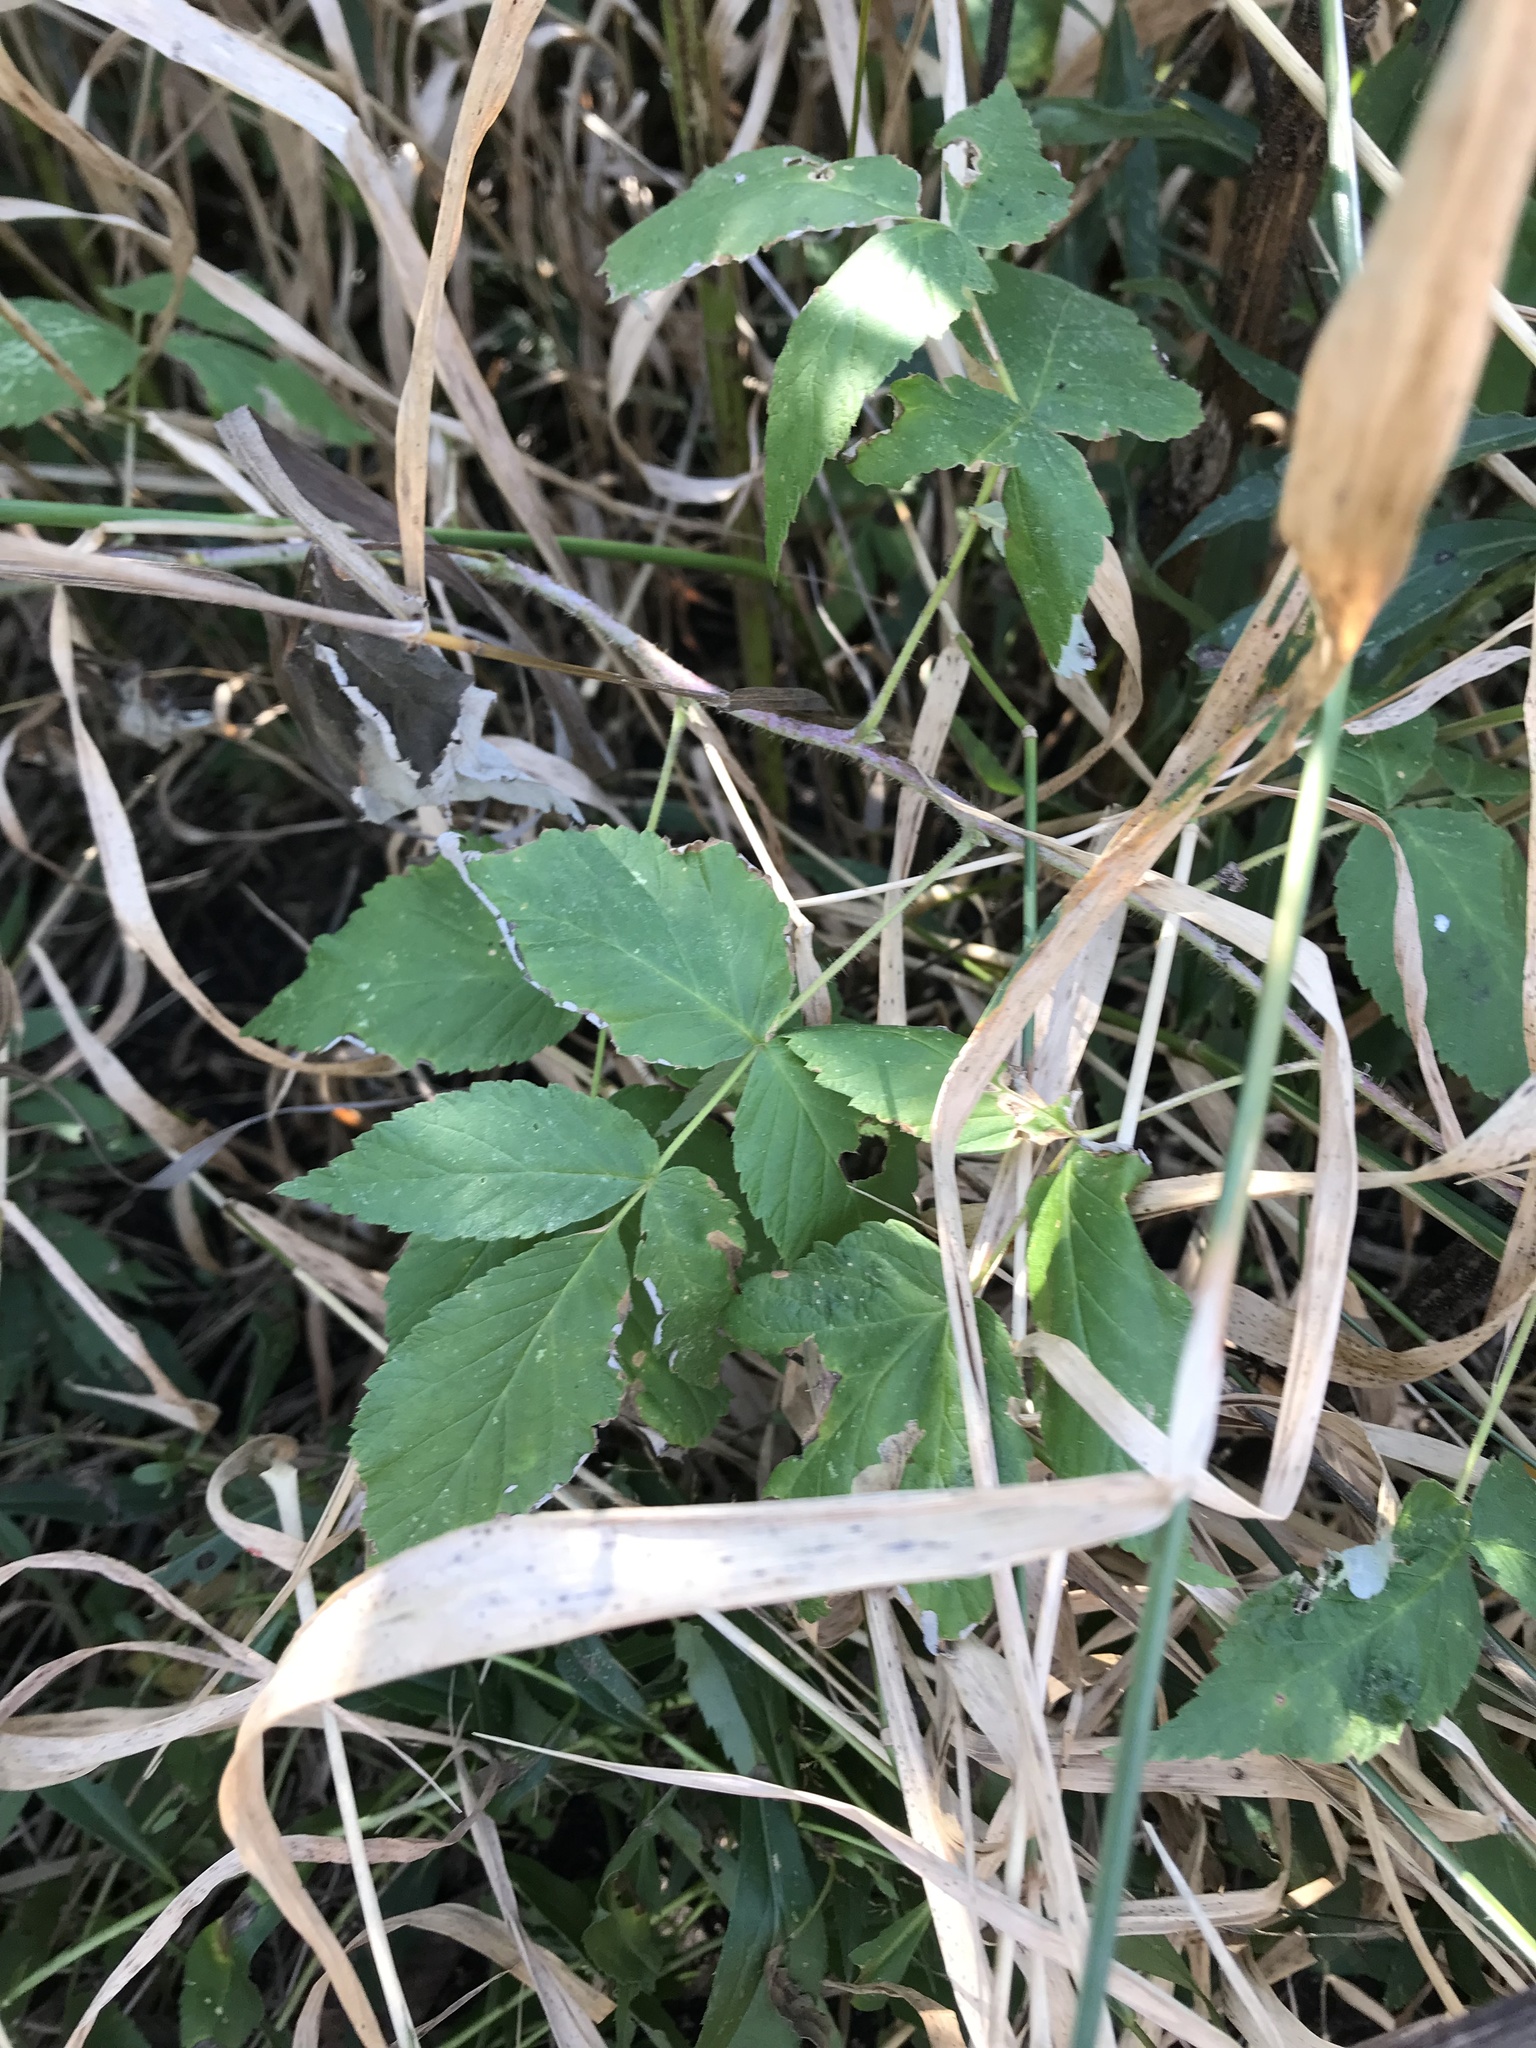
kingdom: Plantae
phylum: Tracheophyta
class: Magnoliopsida
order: Apiales
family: Apiaceae
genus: Aegopodium
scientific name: Aegopodium podagraria
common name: Ground-elder
